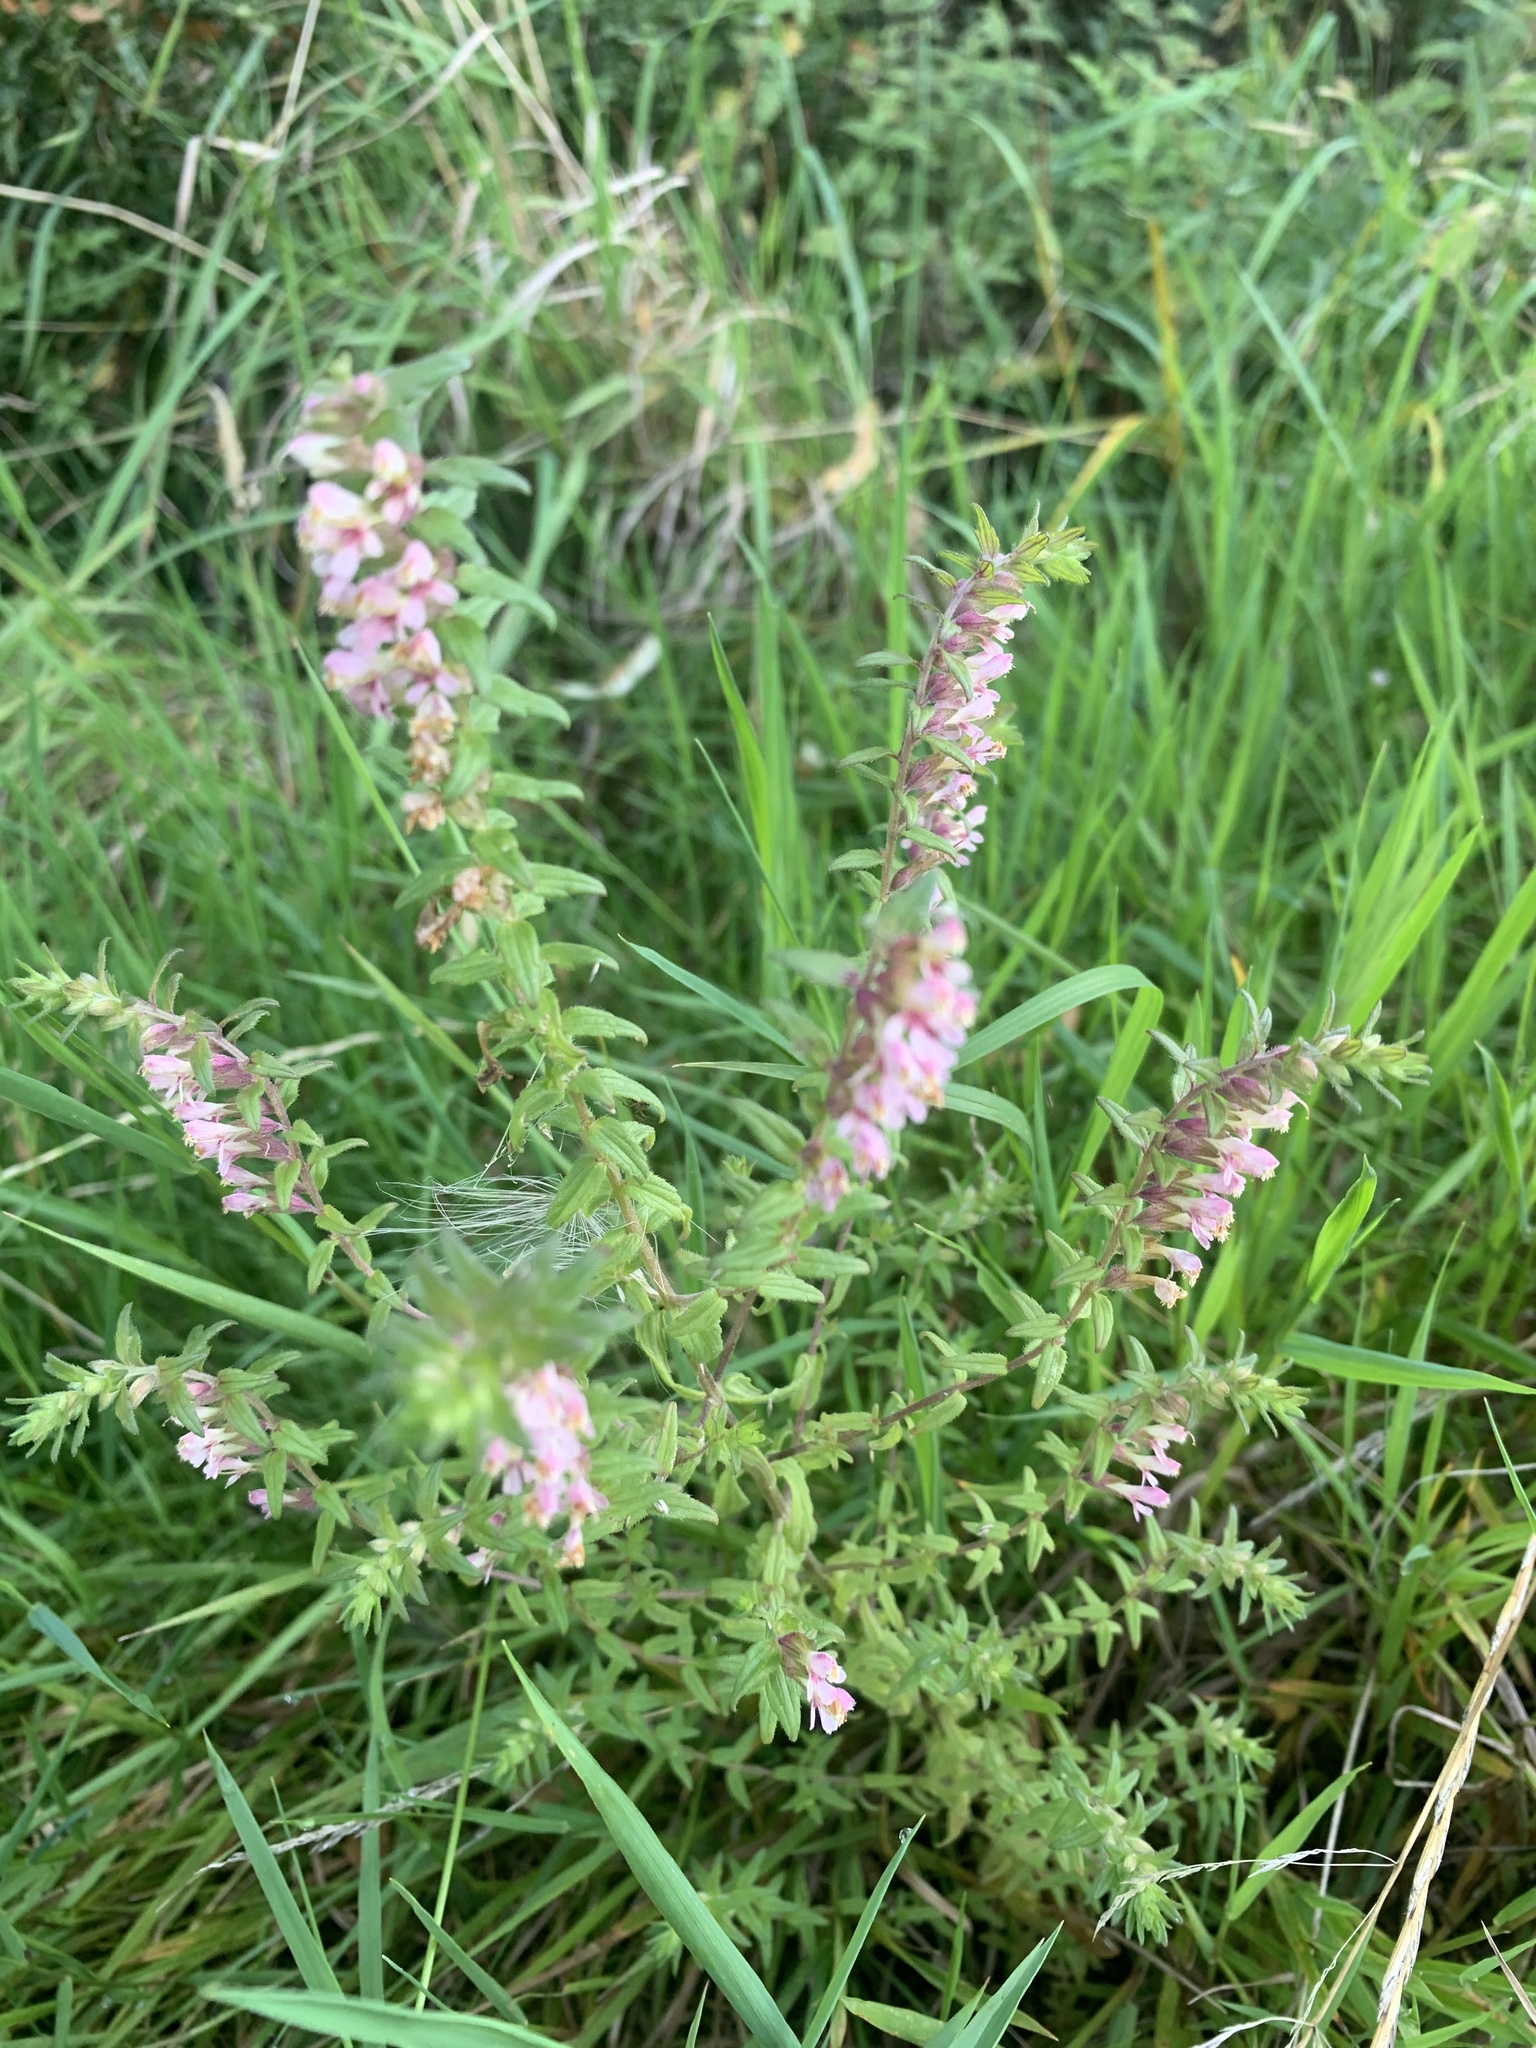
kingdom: Plantae
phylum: Tracheophyta
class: Magnoliopsida
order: Lamiales
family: Orobanchaceae
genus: Odontites
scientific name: Odontites vulgaris
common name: Broomrape
